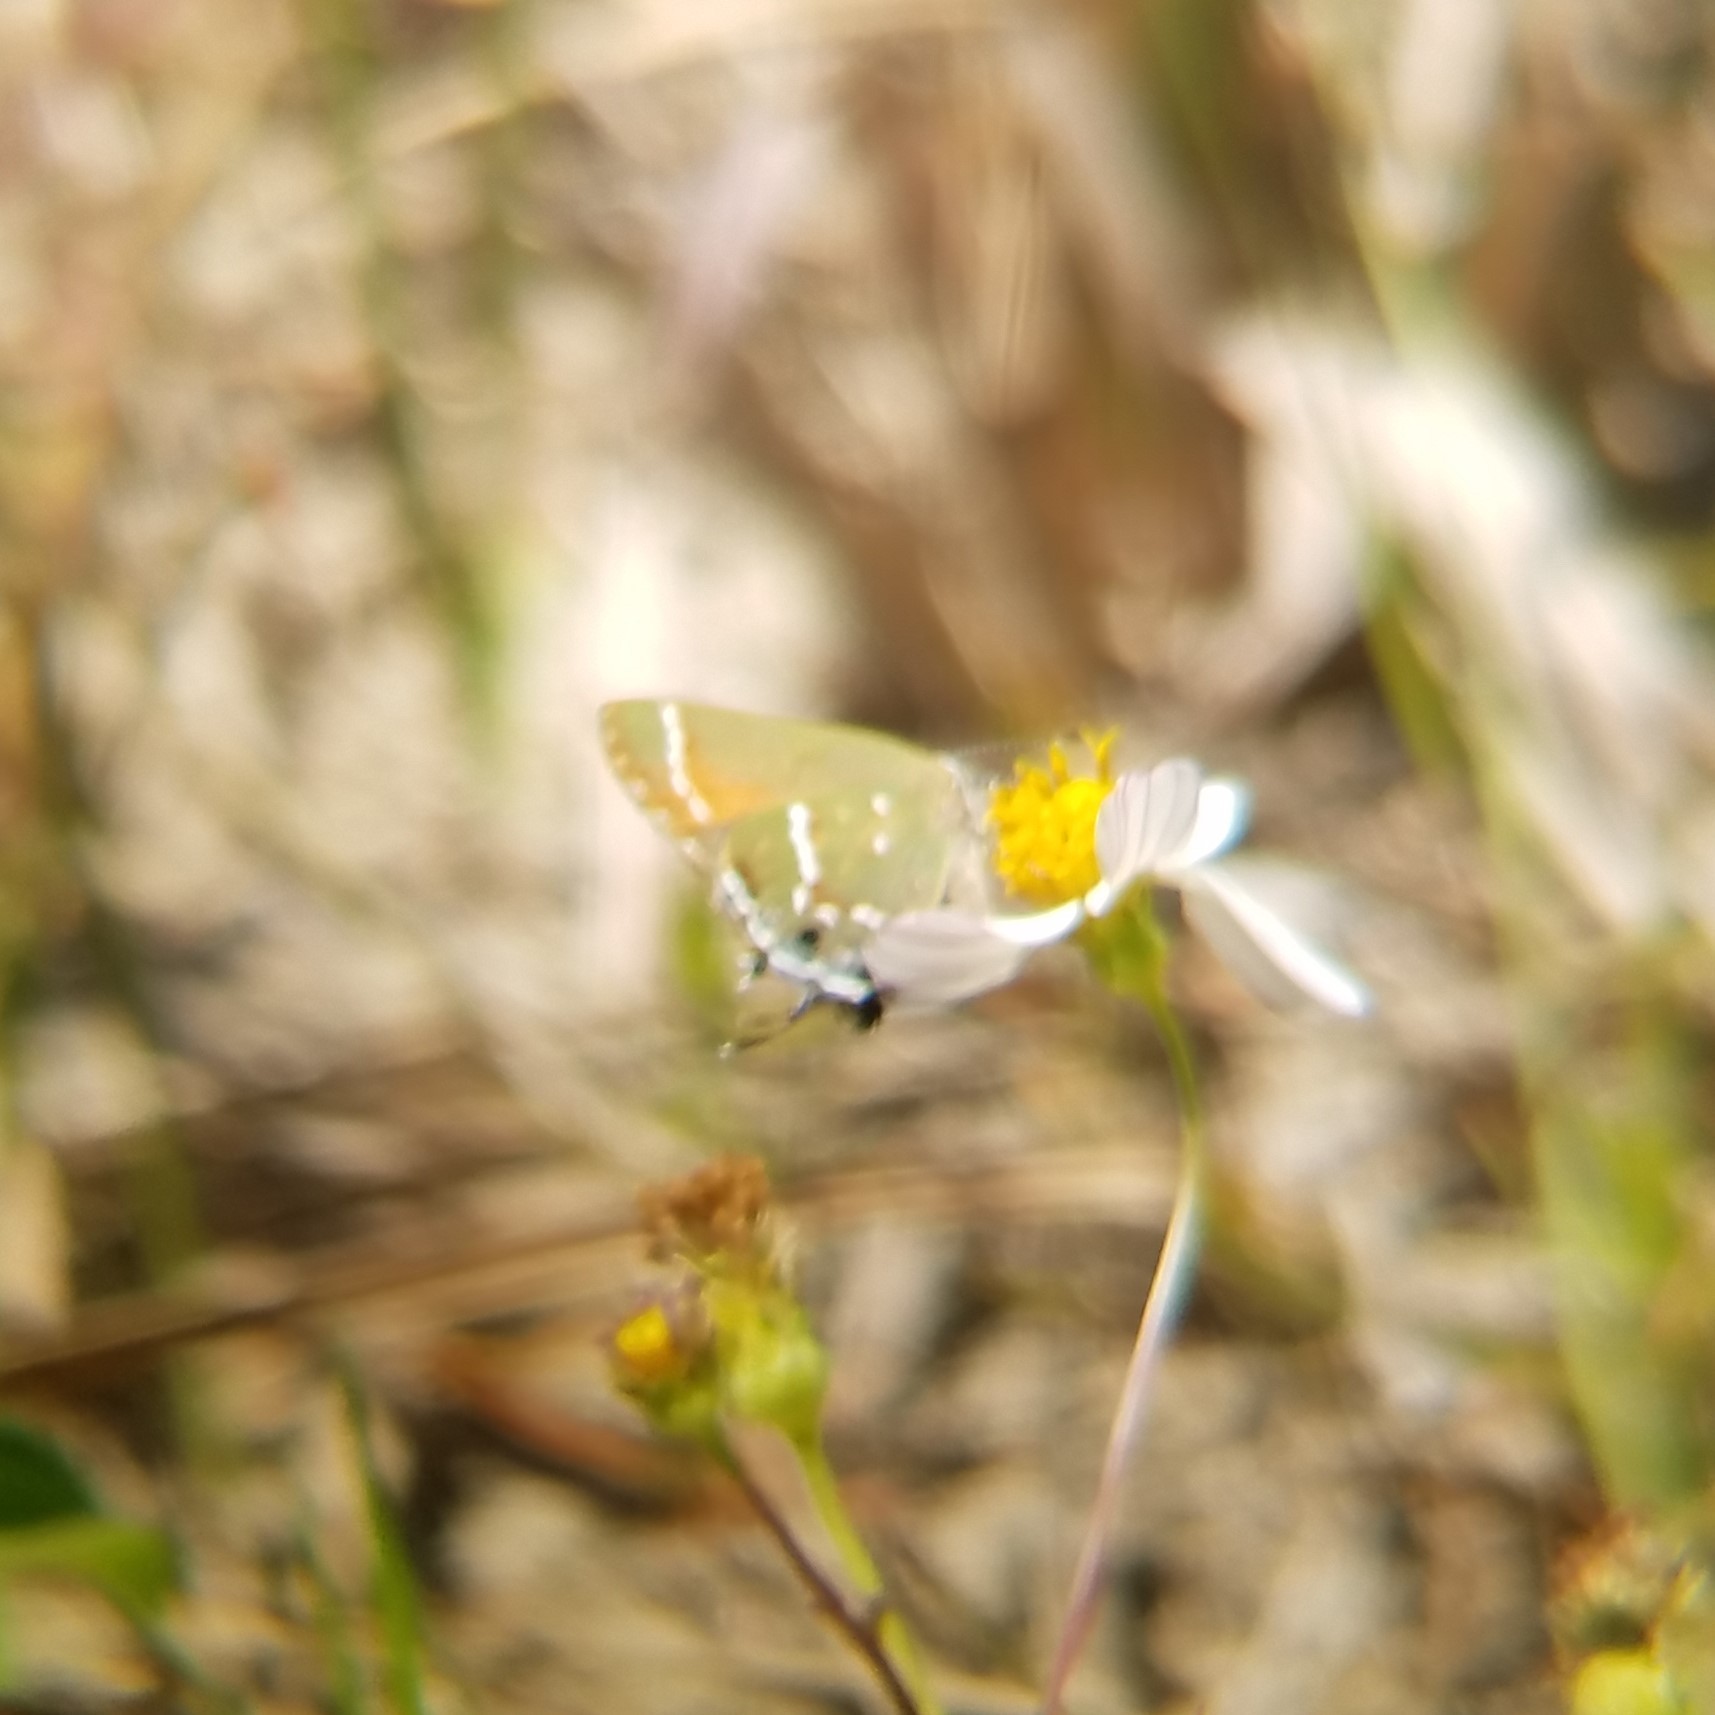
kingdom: Animalia
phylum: Arthropoda
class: Insecta
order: Lepidoptera
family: Lycaenidae
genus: Mitoura
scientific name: Mitoura gryneus
